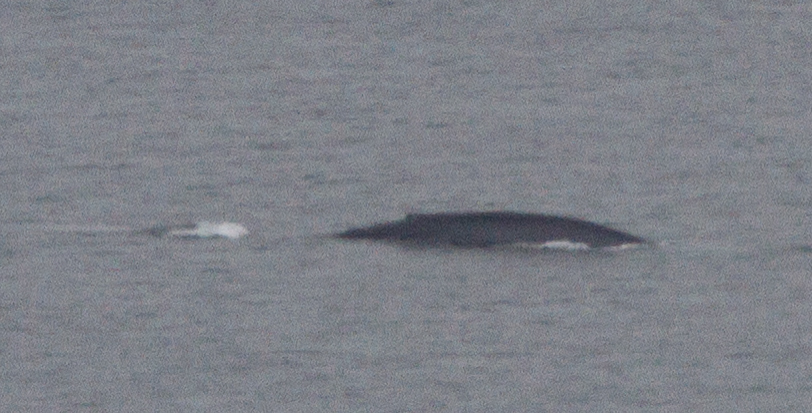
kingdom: Animalia
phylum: Chordata
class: Mammalia
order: Cetacea
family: Balaenopteridae
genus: Balaenoptera
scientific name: Balaenoptera musculus
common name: Blue whale
